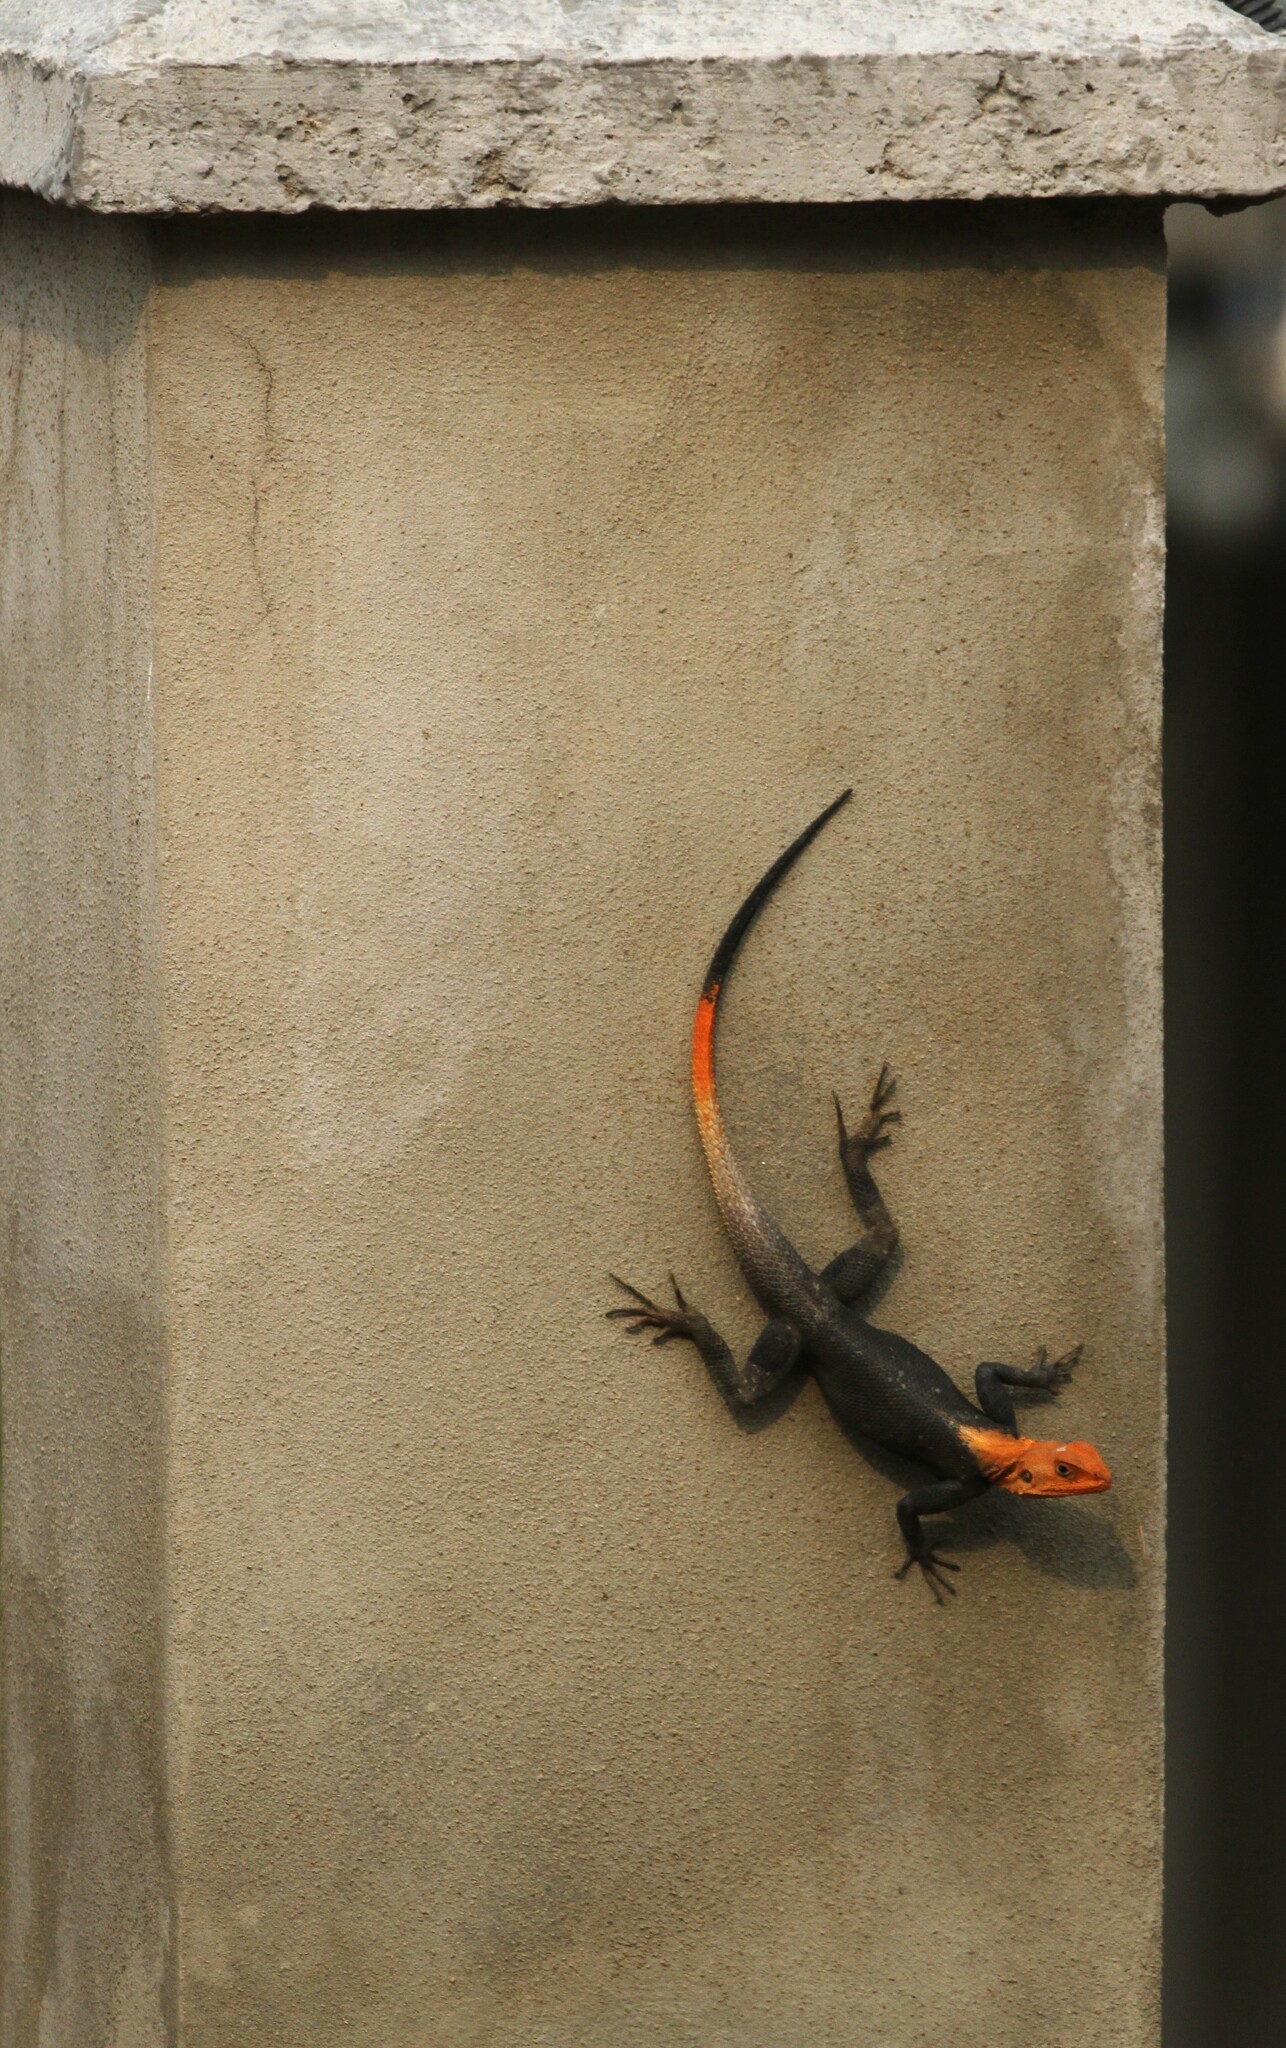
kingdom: Animalia
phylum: Chordata
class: Squamata
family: Agamidae
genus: Agama
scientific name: Agama agama
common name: Common agama
